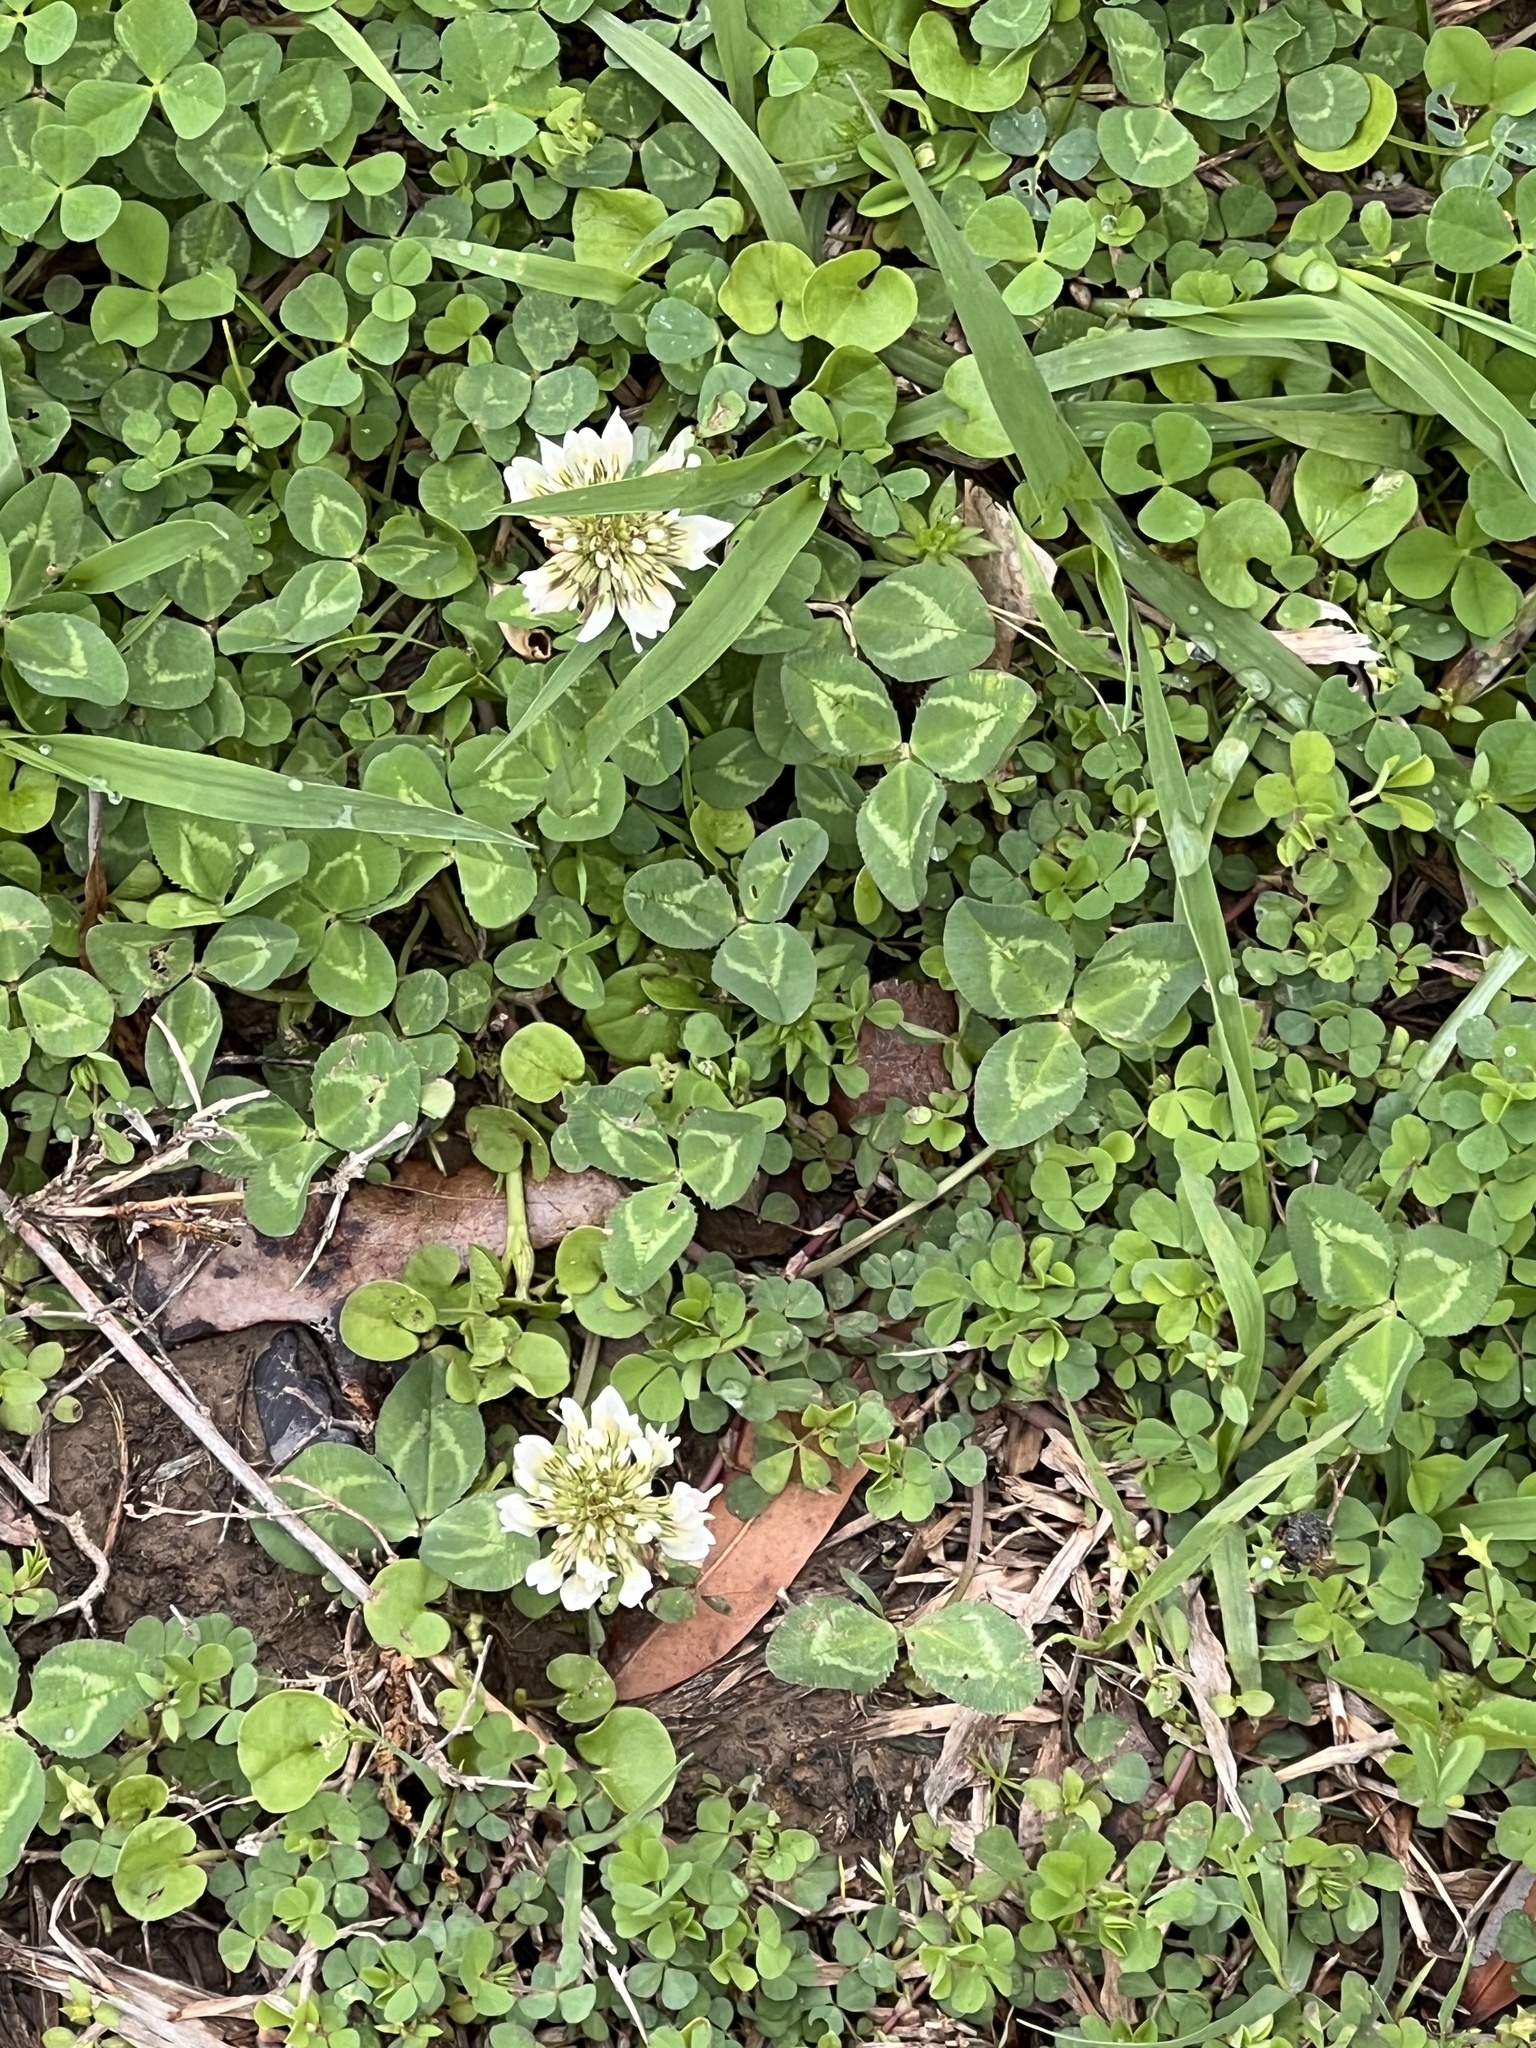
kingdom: Plantae
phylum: Tracheophyta
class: Magnoliopsida
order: Fabales
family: Fabaceae
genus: Trifolium
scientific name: Trifolium repens
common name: White clover
